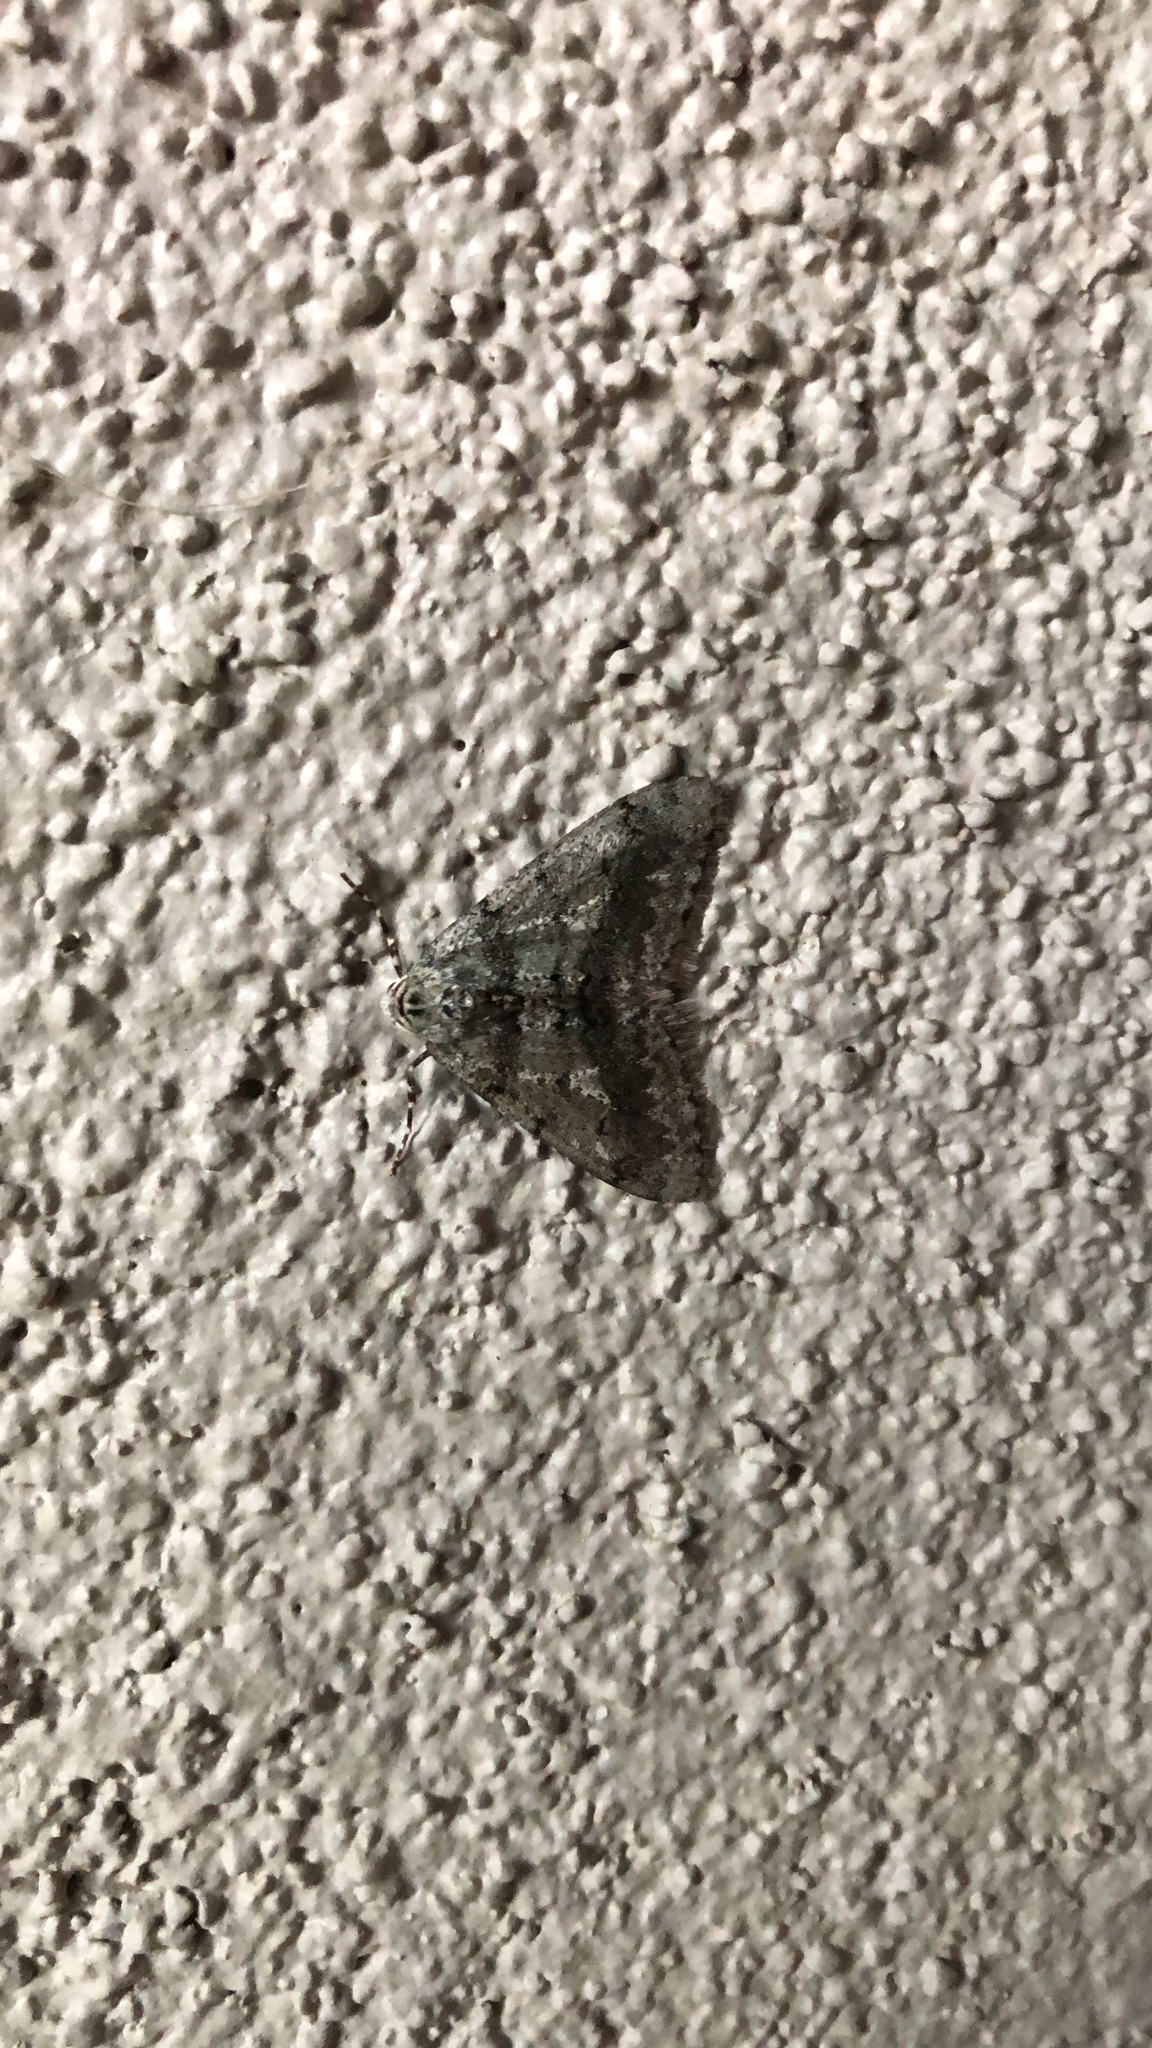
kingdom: Animalia
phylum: Arthropoda
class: Insecta
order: Lepidoptera
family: Geometridae
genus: Phigalia
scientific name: Phigalia strigataria
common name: Small phigalia
